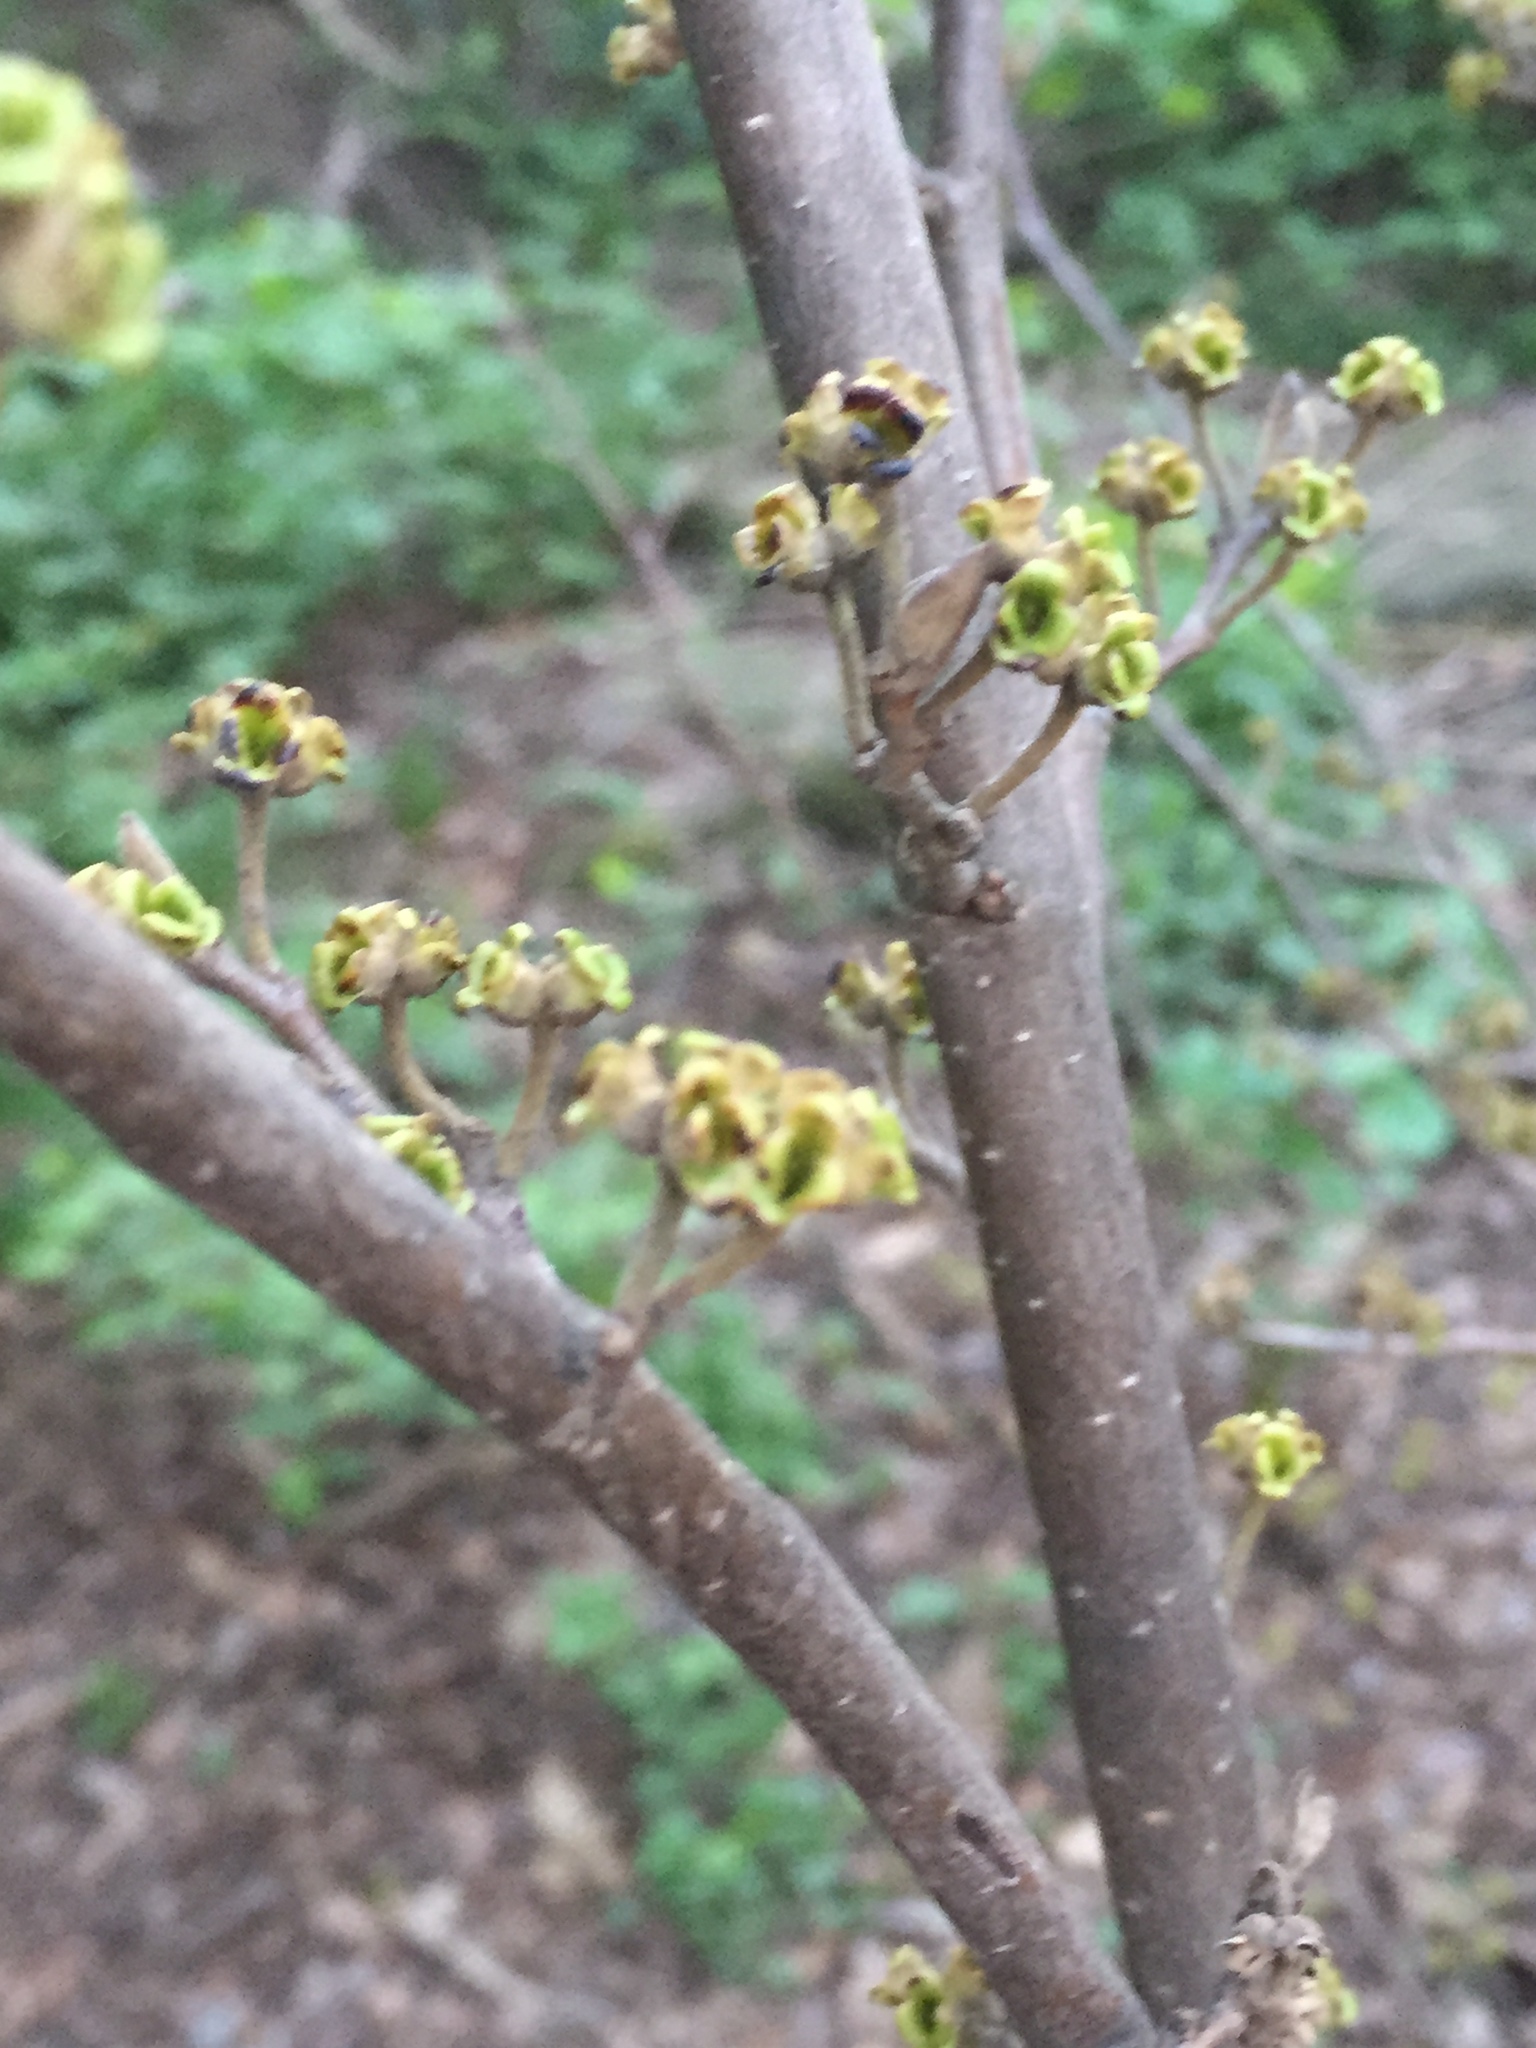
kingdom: Plantae
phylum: Tracheophyta
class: Magnoliopsida
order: Saxifragales
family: Hamamelidaceae
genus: Hamamelis
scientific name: Hamamelis virginiana
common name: Witch-hazel
